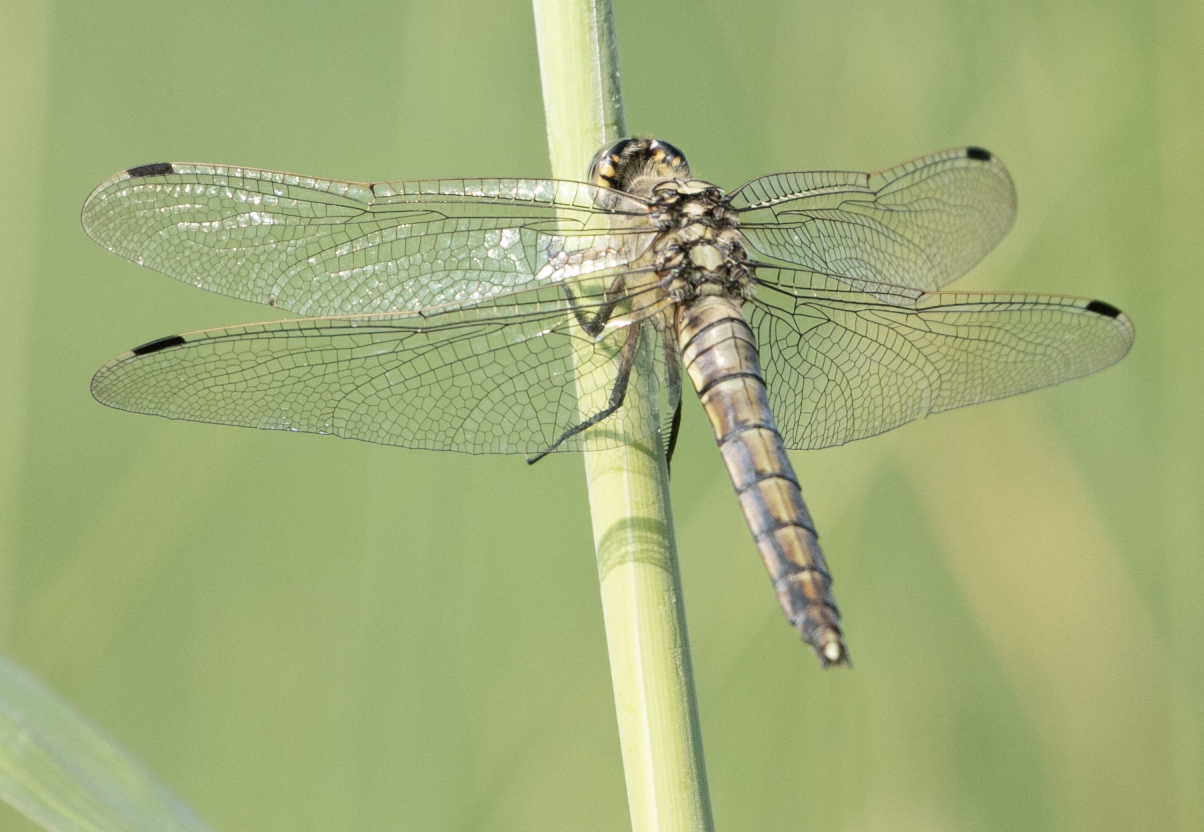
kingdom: Animalia
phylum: Arthropoda
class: Insecta
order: Odonata
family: Libellulidae
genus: Orthetrum
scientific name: Orthetrum cancellatum
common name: Black-tailed skimmer
